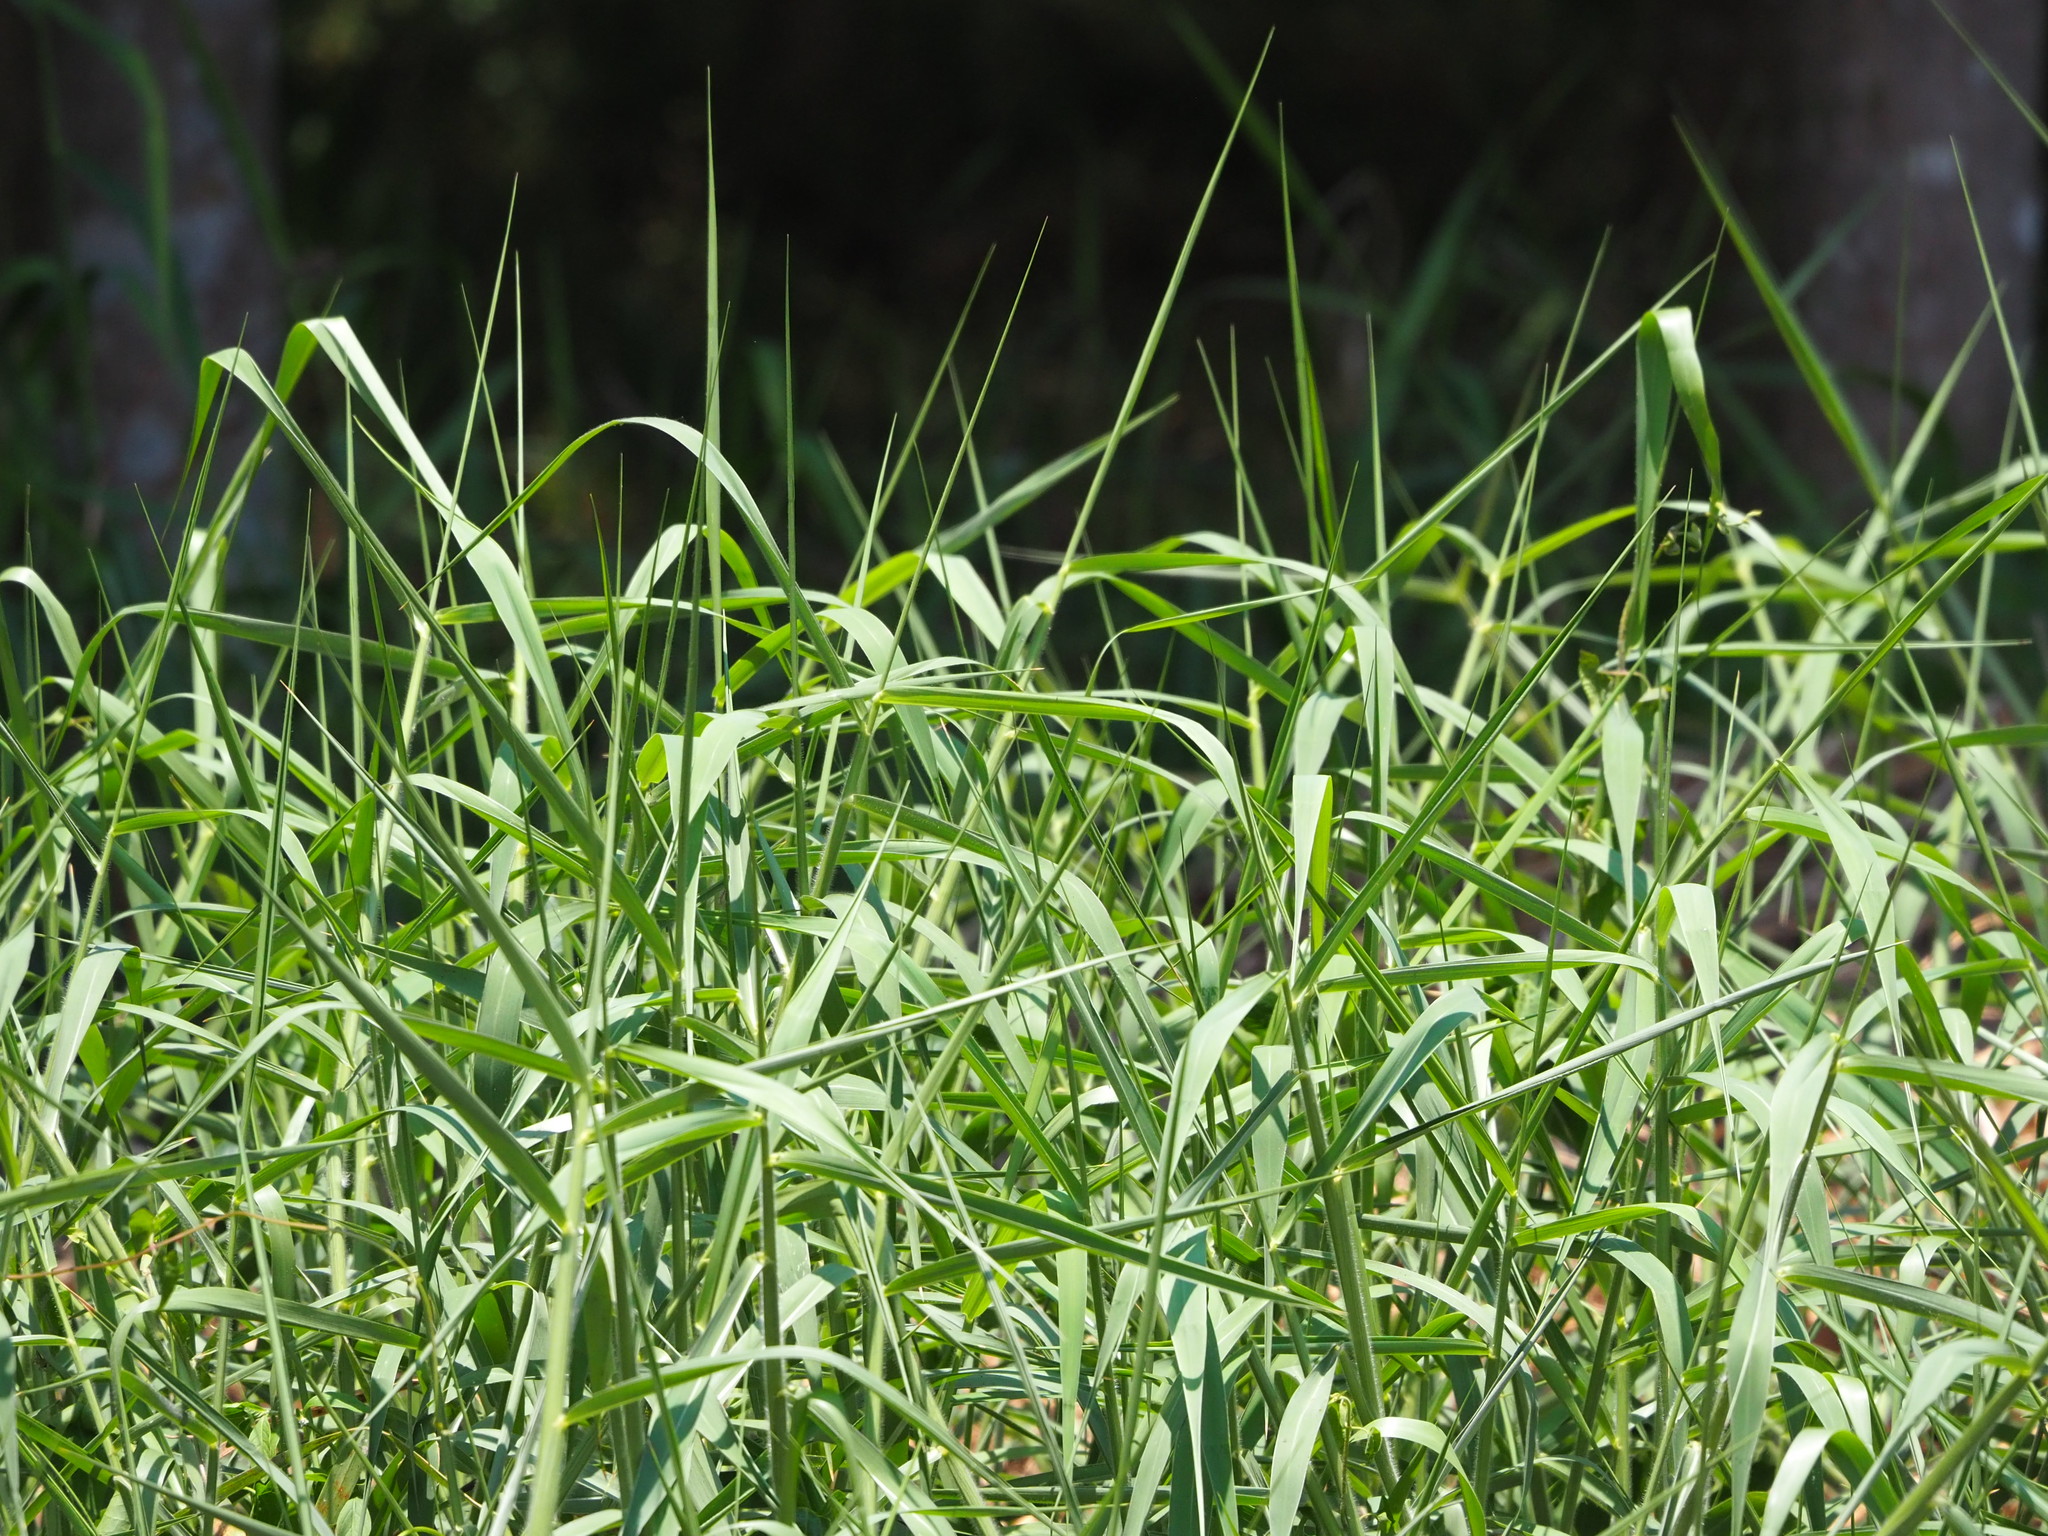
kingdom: Plantae
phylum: Tracheophyta
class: Liliopsida
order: Poales
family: Poaceae
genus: Urochloa
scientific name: Urochloa mutica
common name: Para grass
